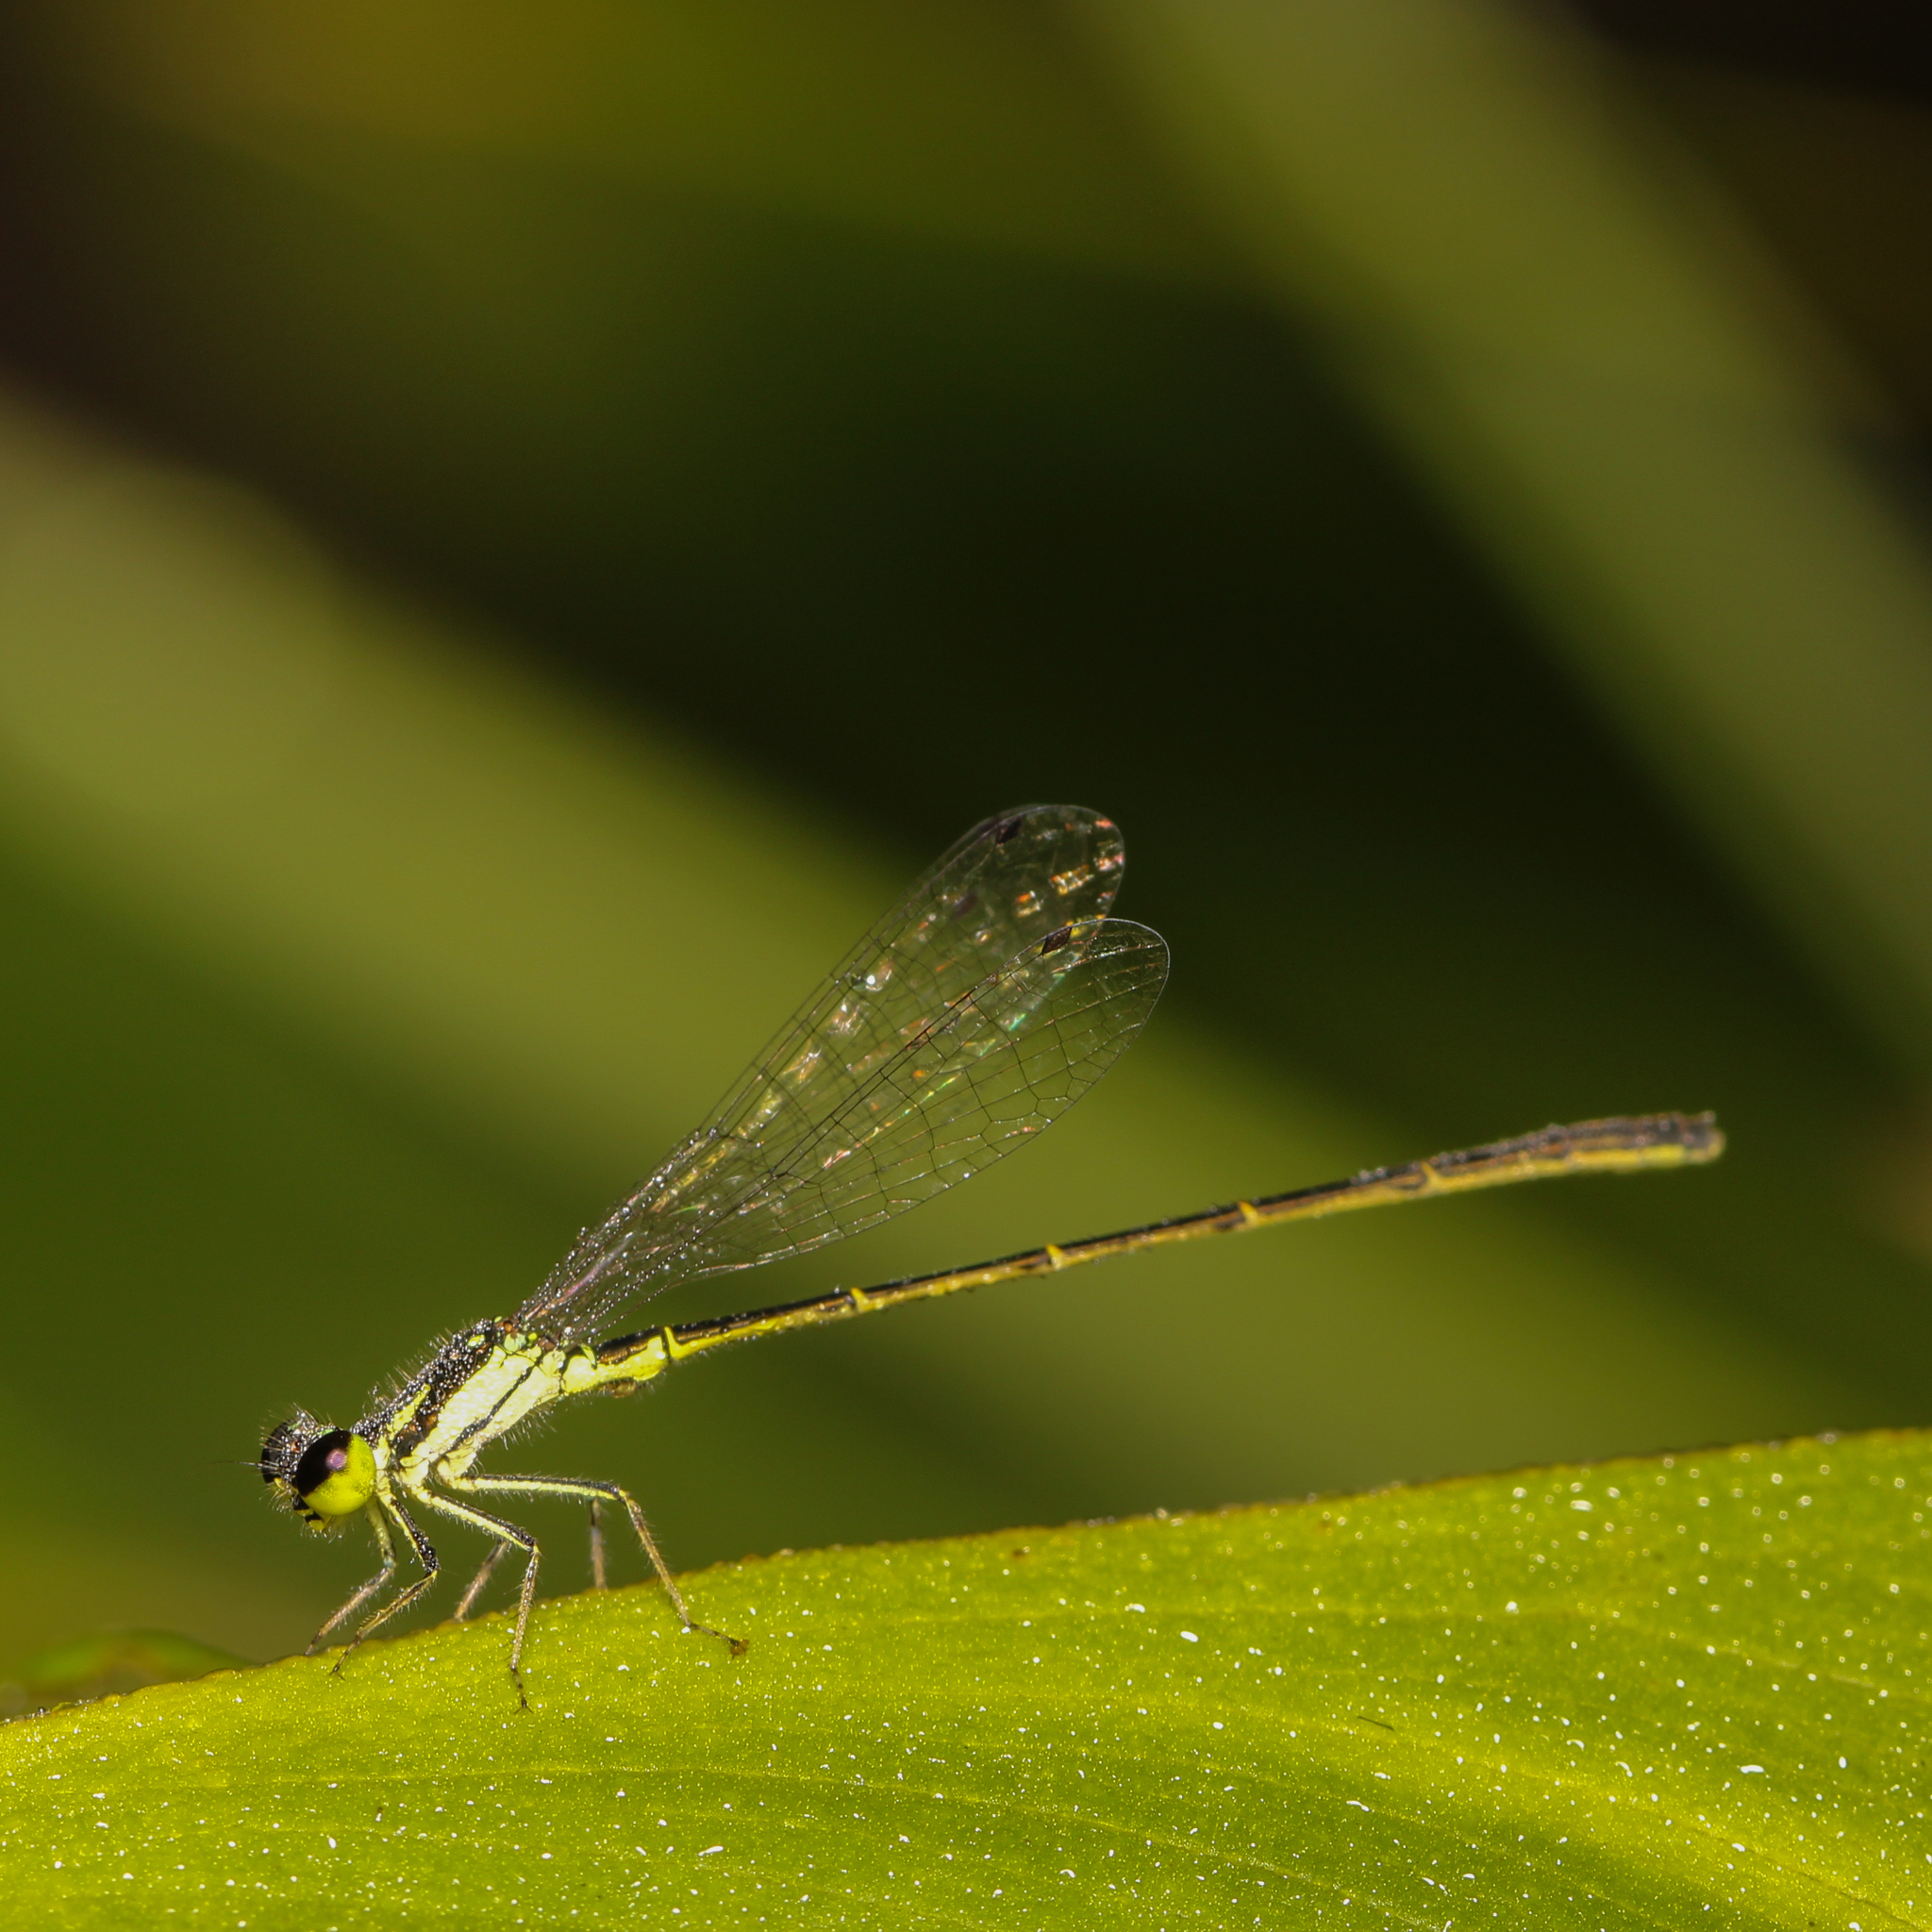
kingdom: Animalia
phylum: Arthropoda
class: Insecta
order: Odonata
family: Coenagrionidae
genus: Ischnura
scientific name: Ischnura posita
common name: Fragile forktail
